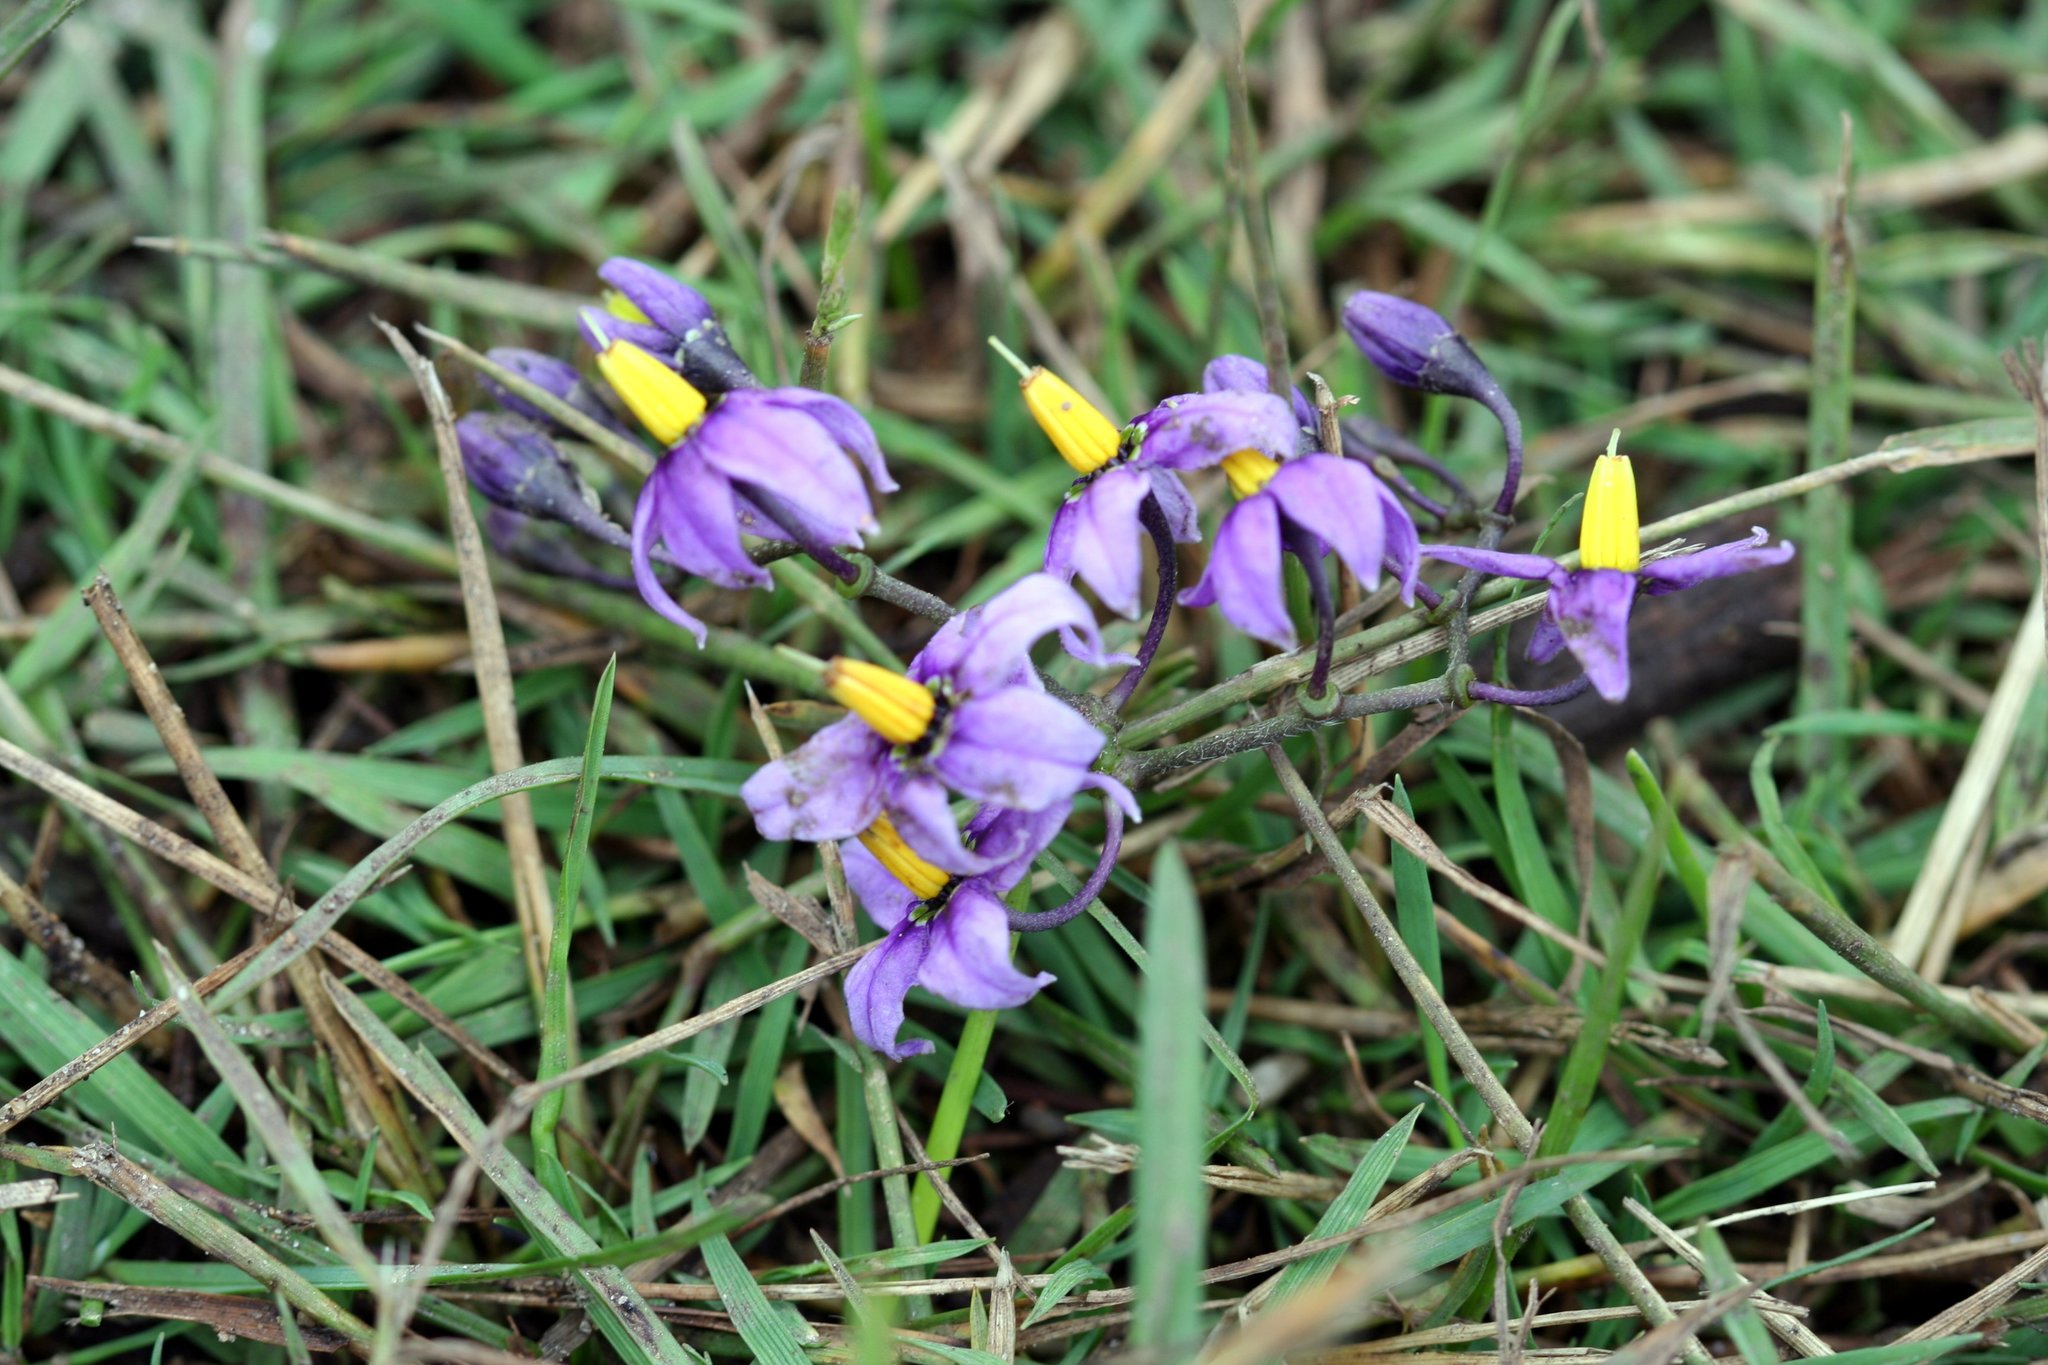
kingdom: Plantae
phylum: Tracheophyta
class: Magnoliopsida
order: Solanales
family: Solanaceae
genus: Solanum
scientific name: Solanum dulcamara
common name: Climbing nightshade
